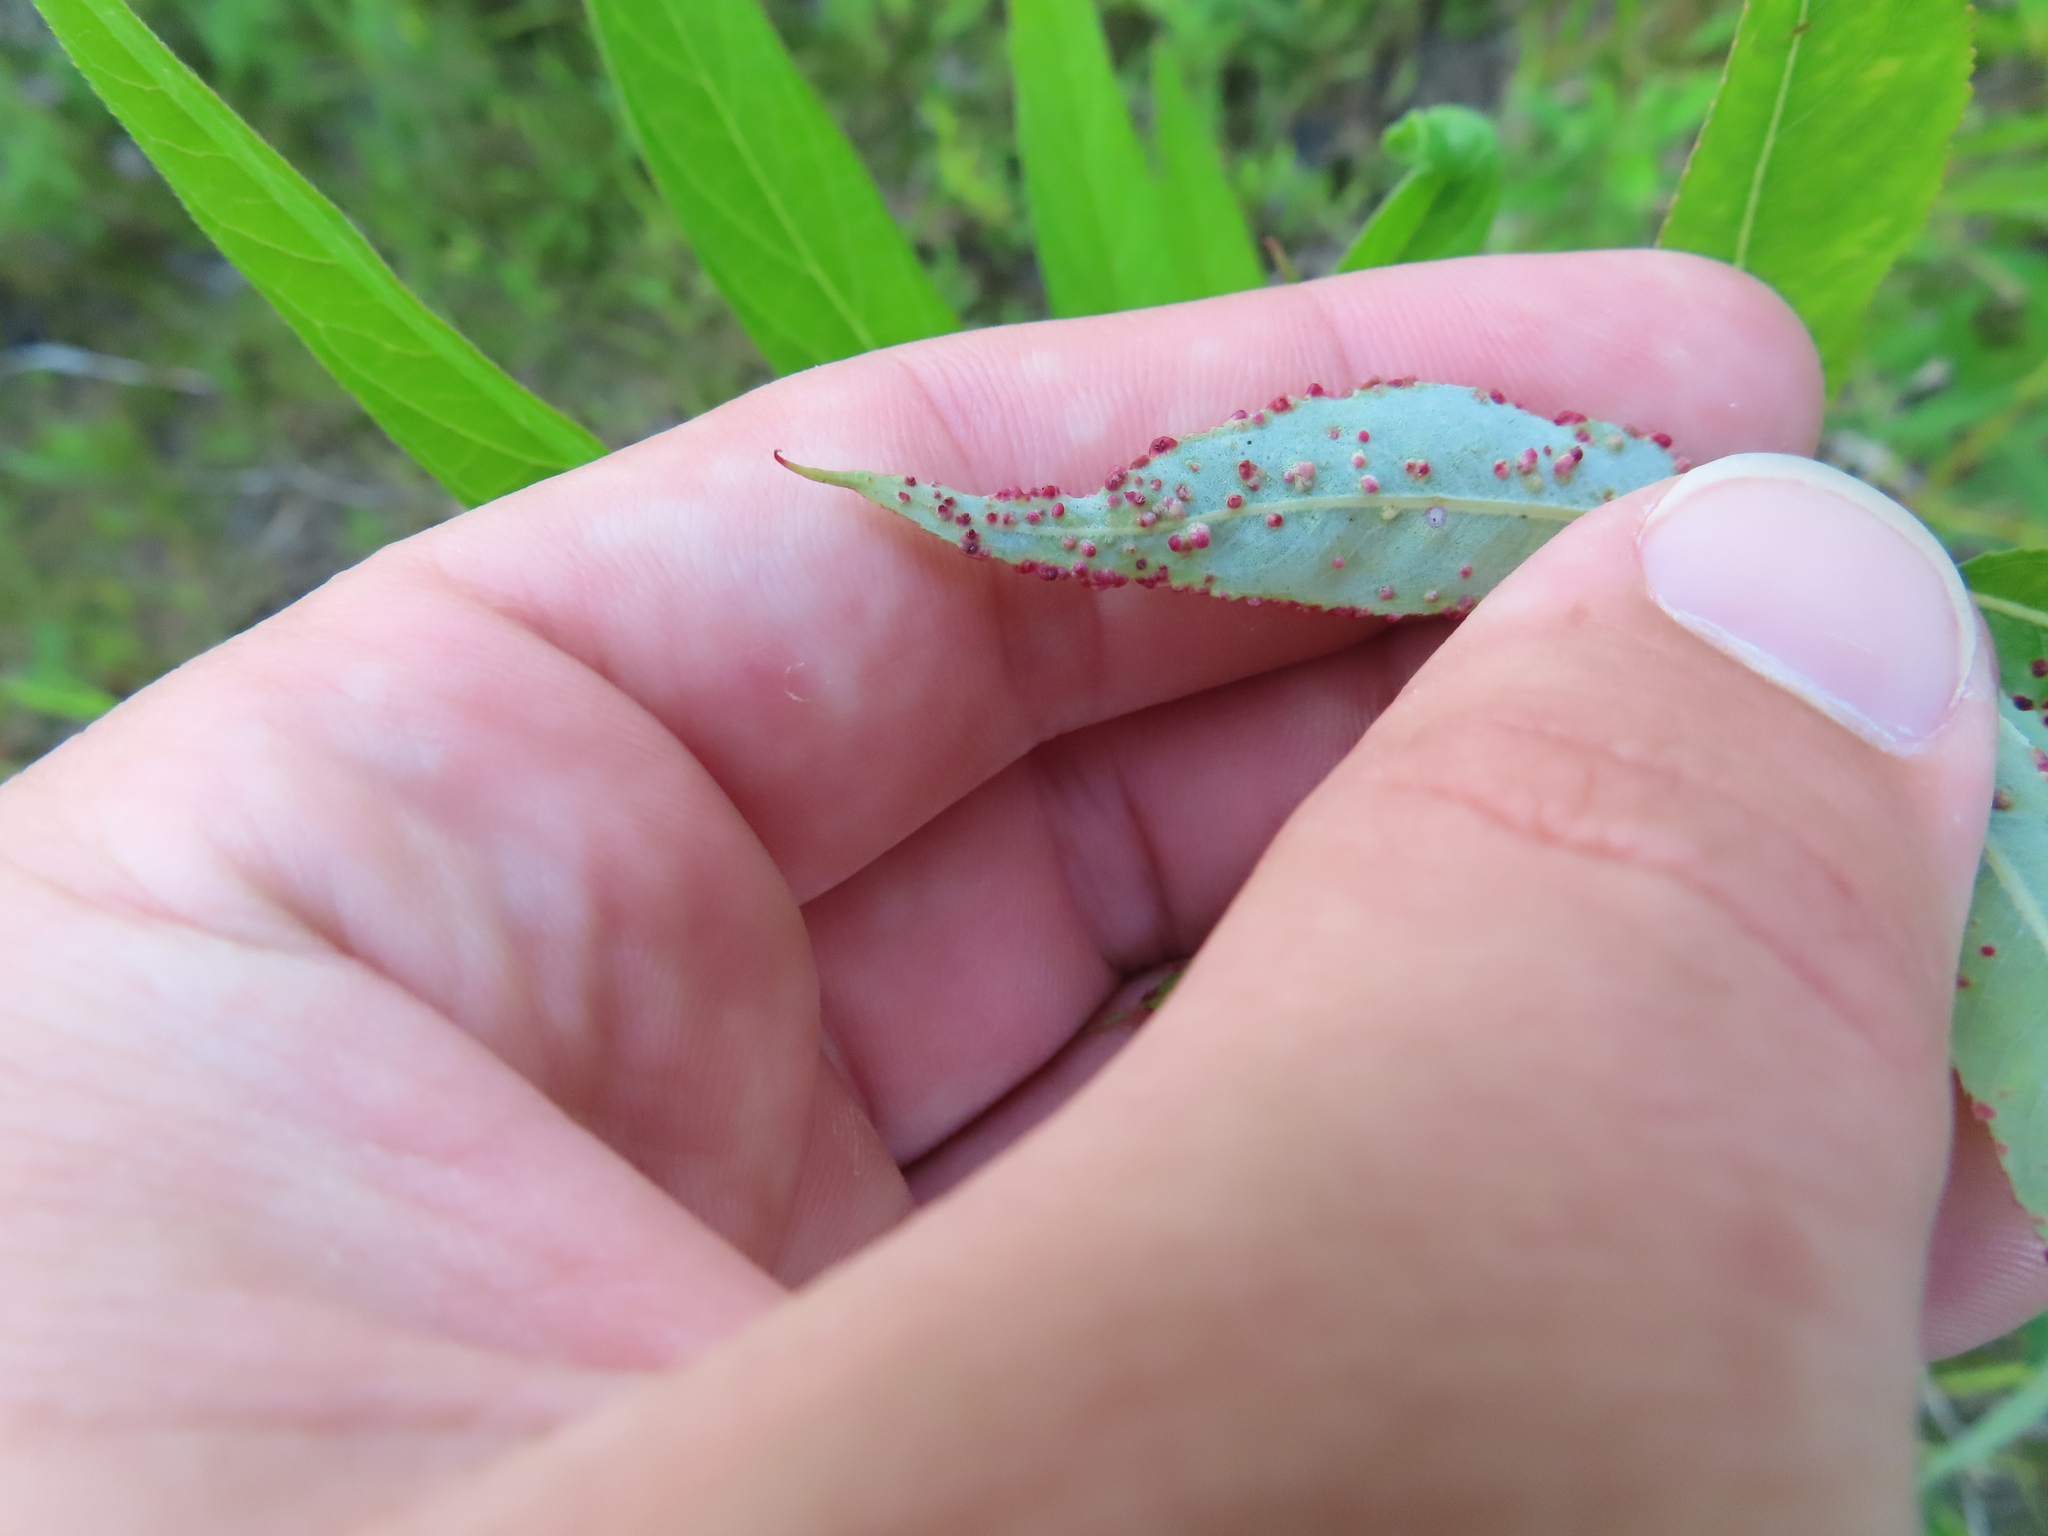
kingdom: Animalia
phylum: Arthropoda
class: Arachnida
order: Trombidiformes
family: Eriophyidae
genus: Aculus
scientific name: Aculus tetanothrix
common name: Willow bead gall mite
